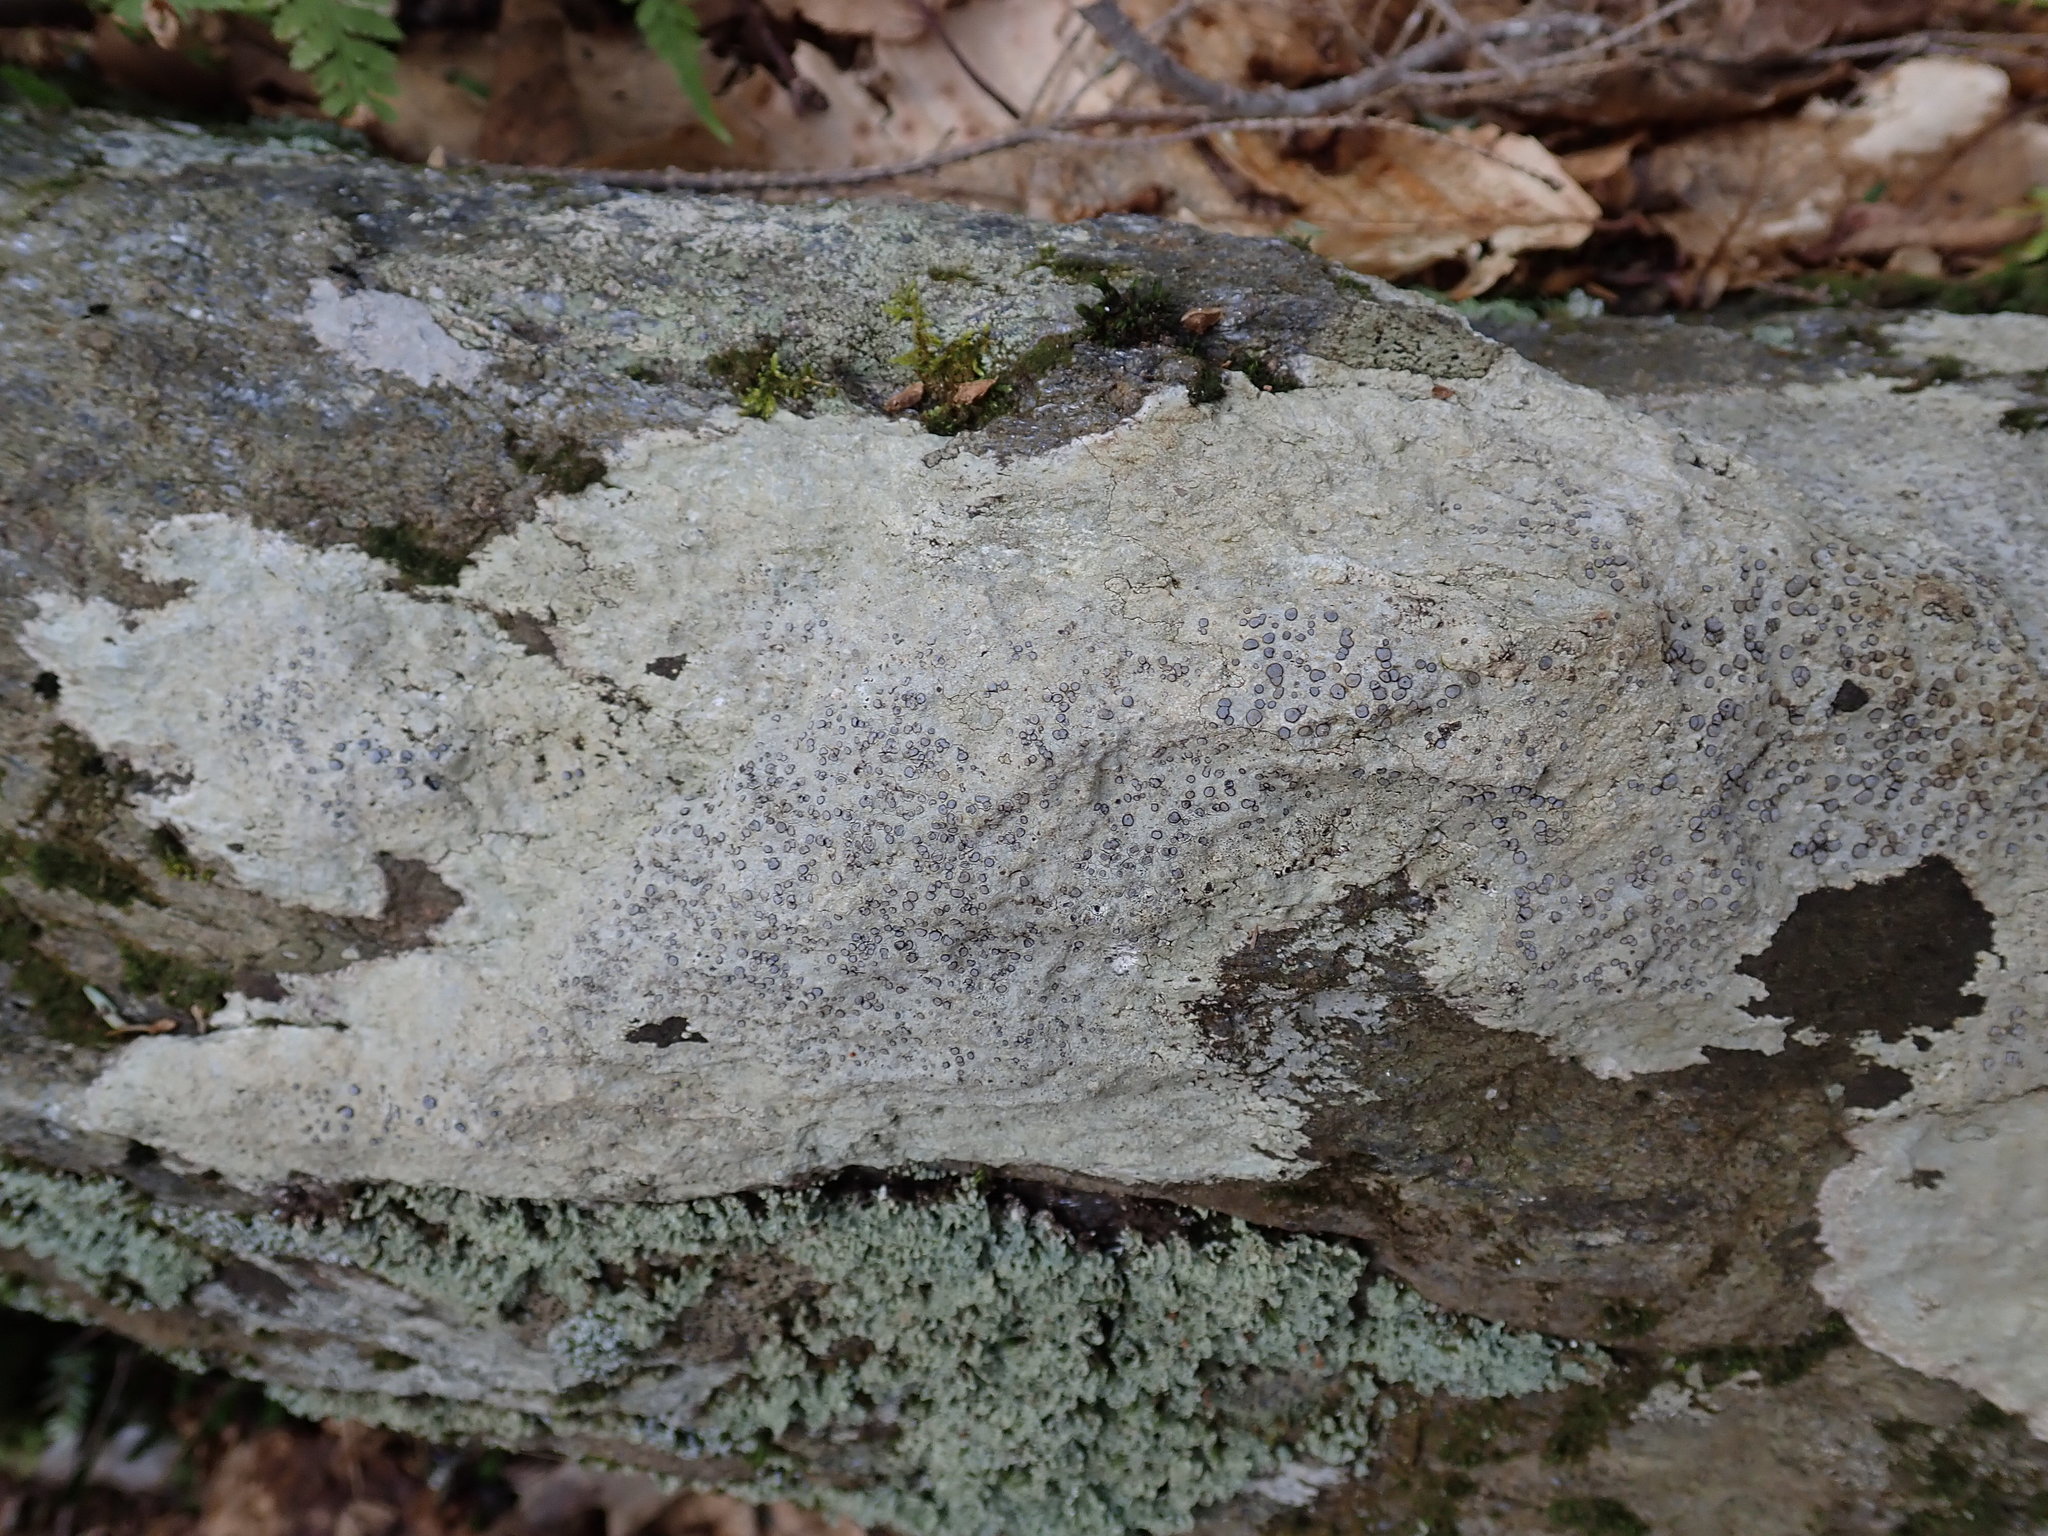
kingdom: Fungi
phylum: Ascomycota
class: Lecanoromycetes
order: Lecideales
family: Lecideaceae
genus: Porpidia
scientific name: Porpidia albocaerulescens
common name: Smokey-eyed boulder lichen
